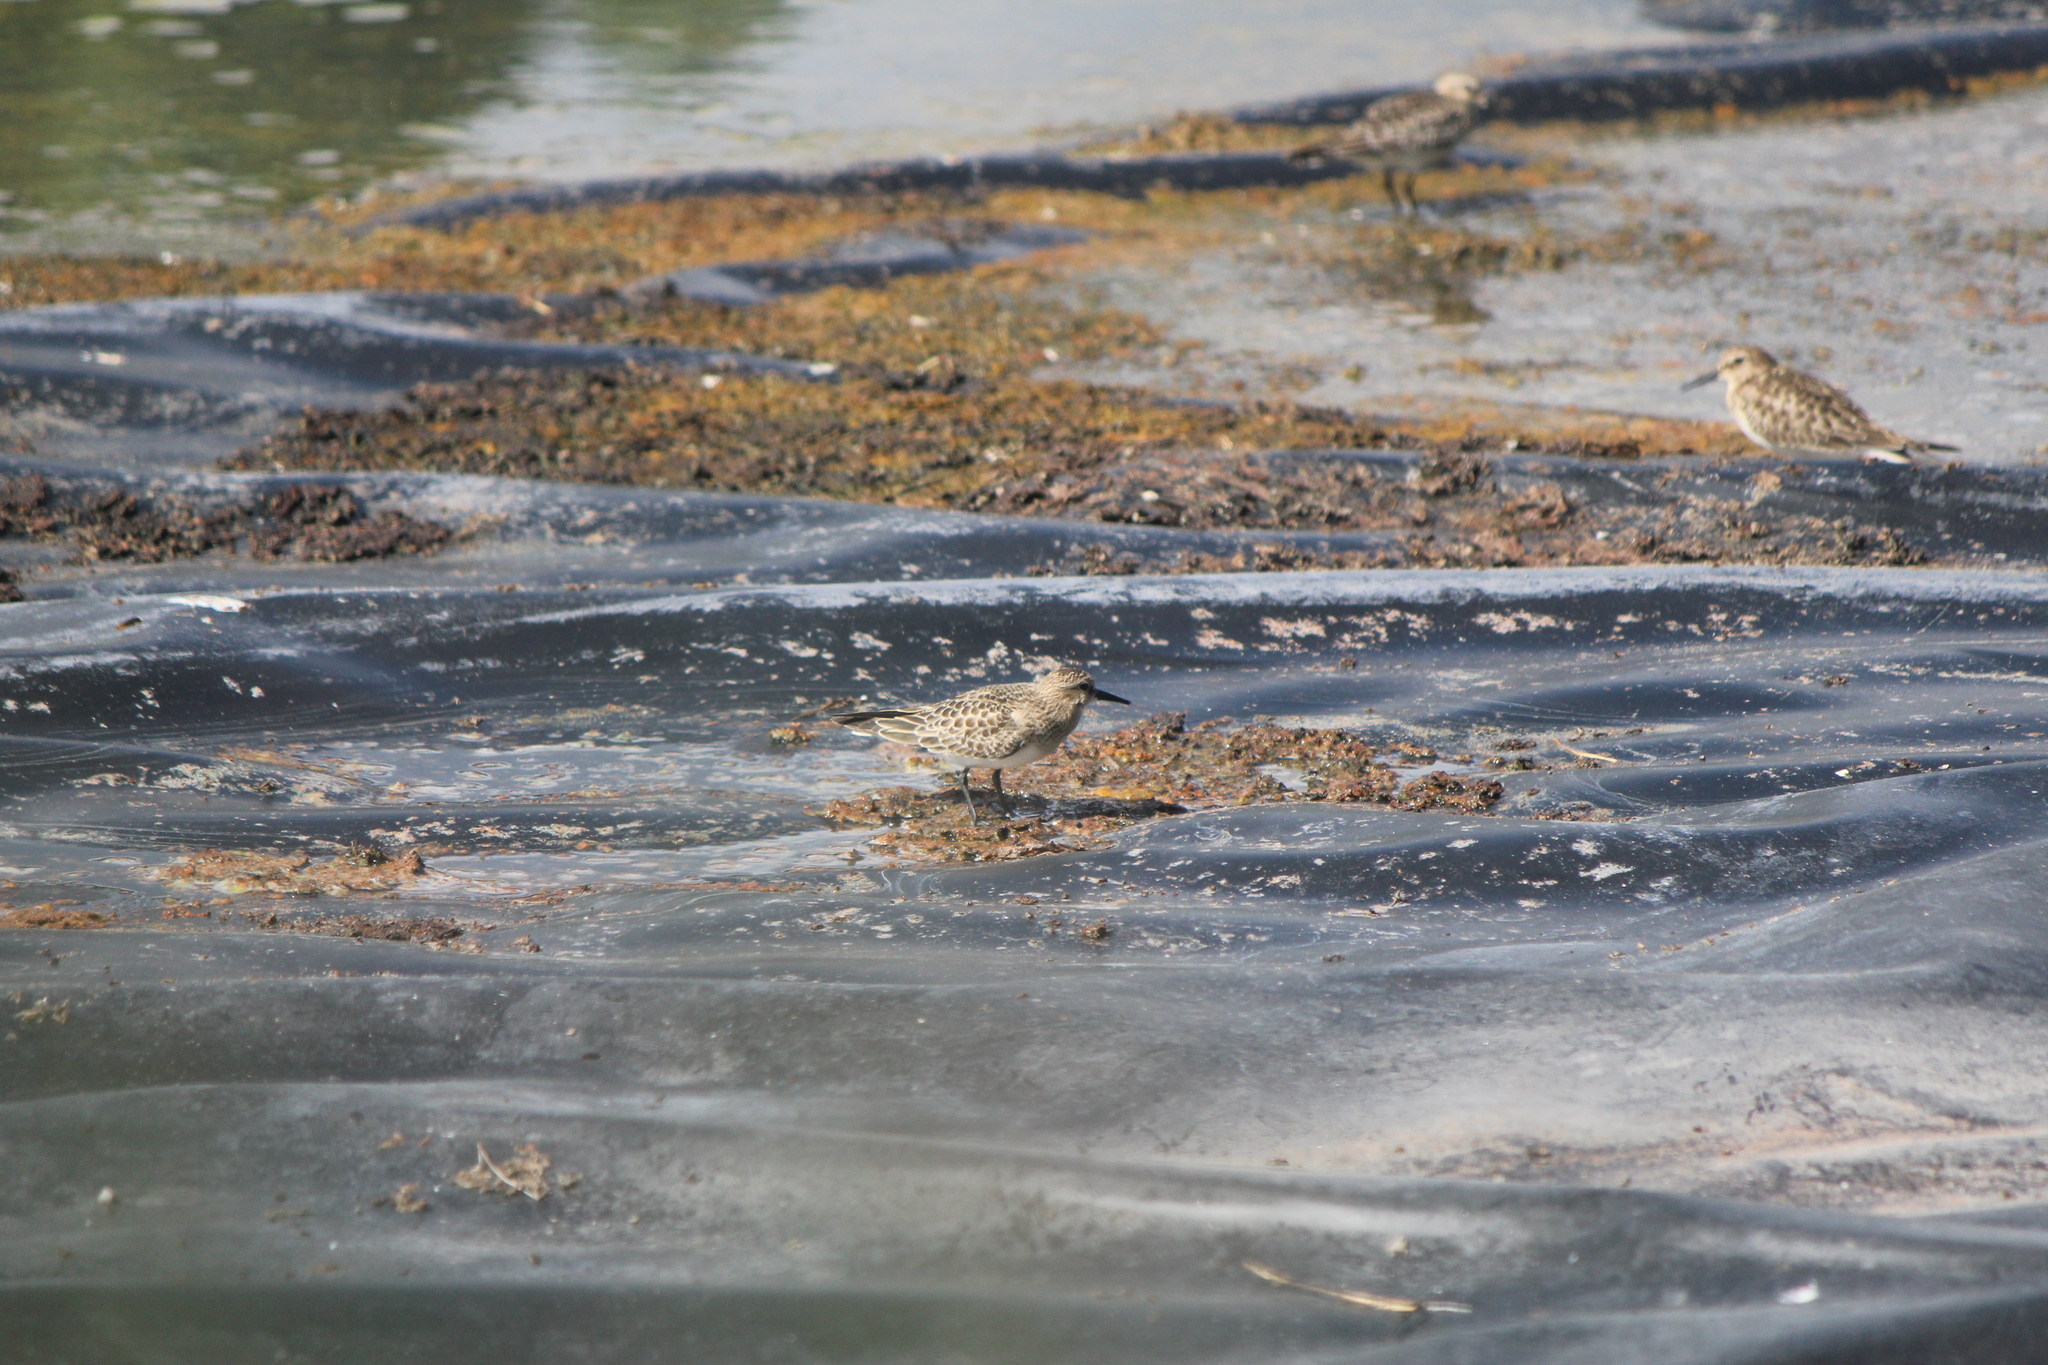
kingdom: Animalia
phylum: Chordata
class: Aves
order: Charadriiformes
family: Scolopacidae
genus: Calidris
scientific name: Calidris bairdii
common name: Baird's sandpiper
